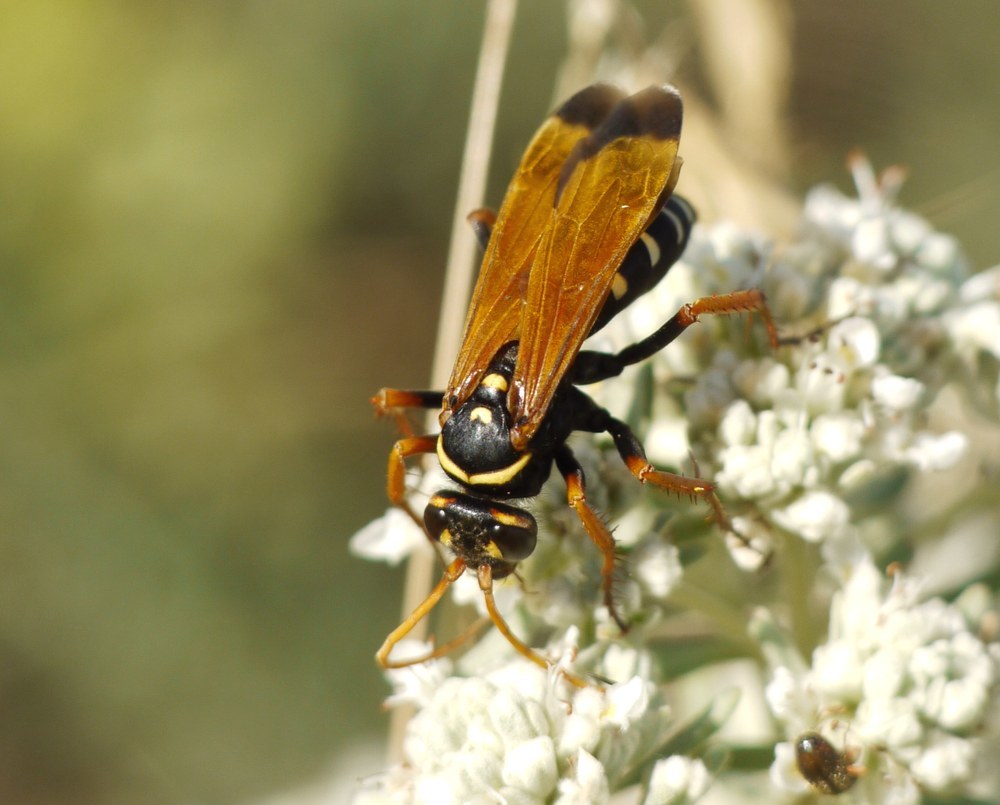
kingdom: Animalia
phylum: Arthropoda
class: Insecta
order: Hymenoptera
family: Pompilidae
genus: Parabatozonus
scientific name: Parabatozonus lacerticida
